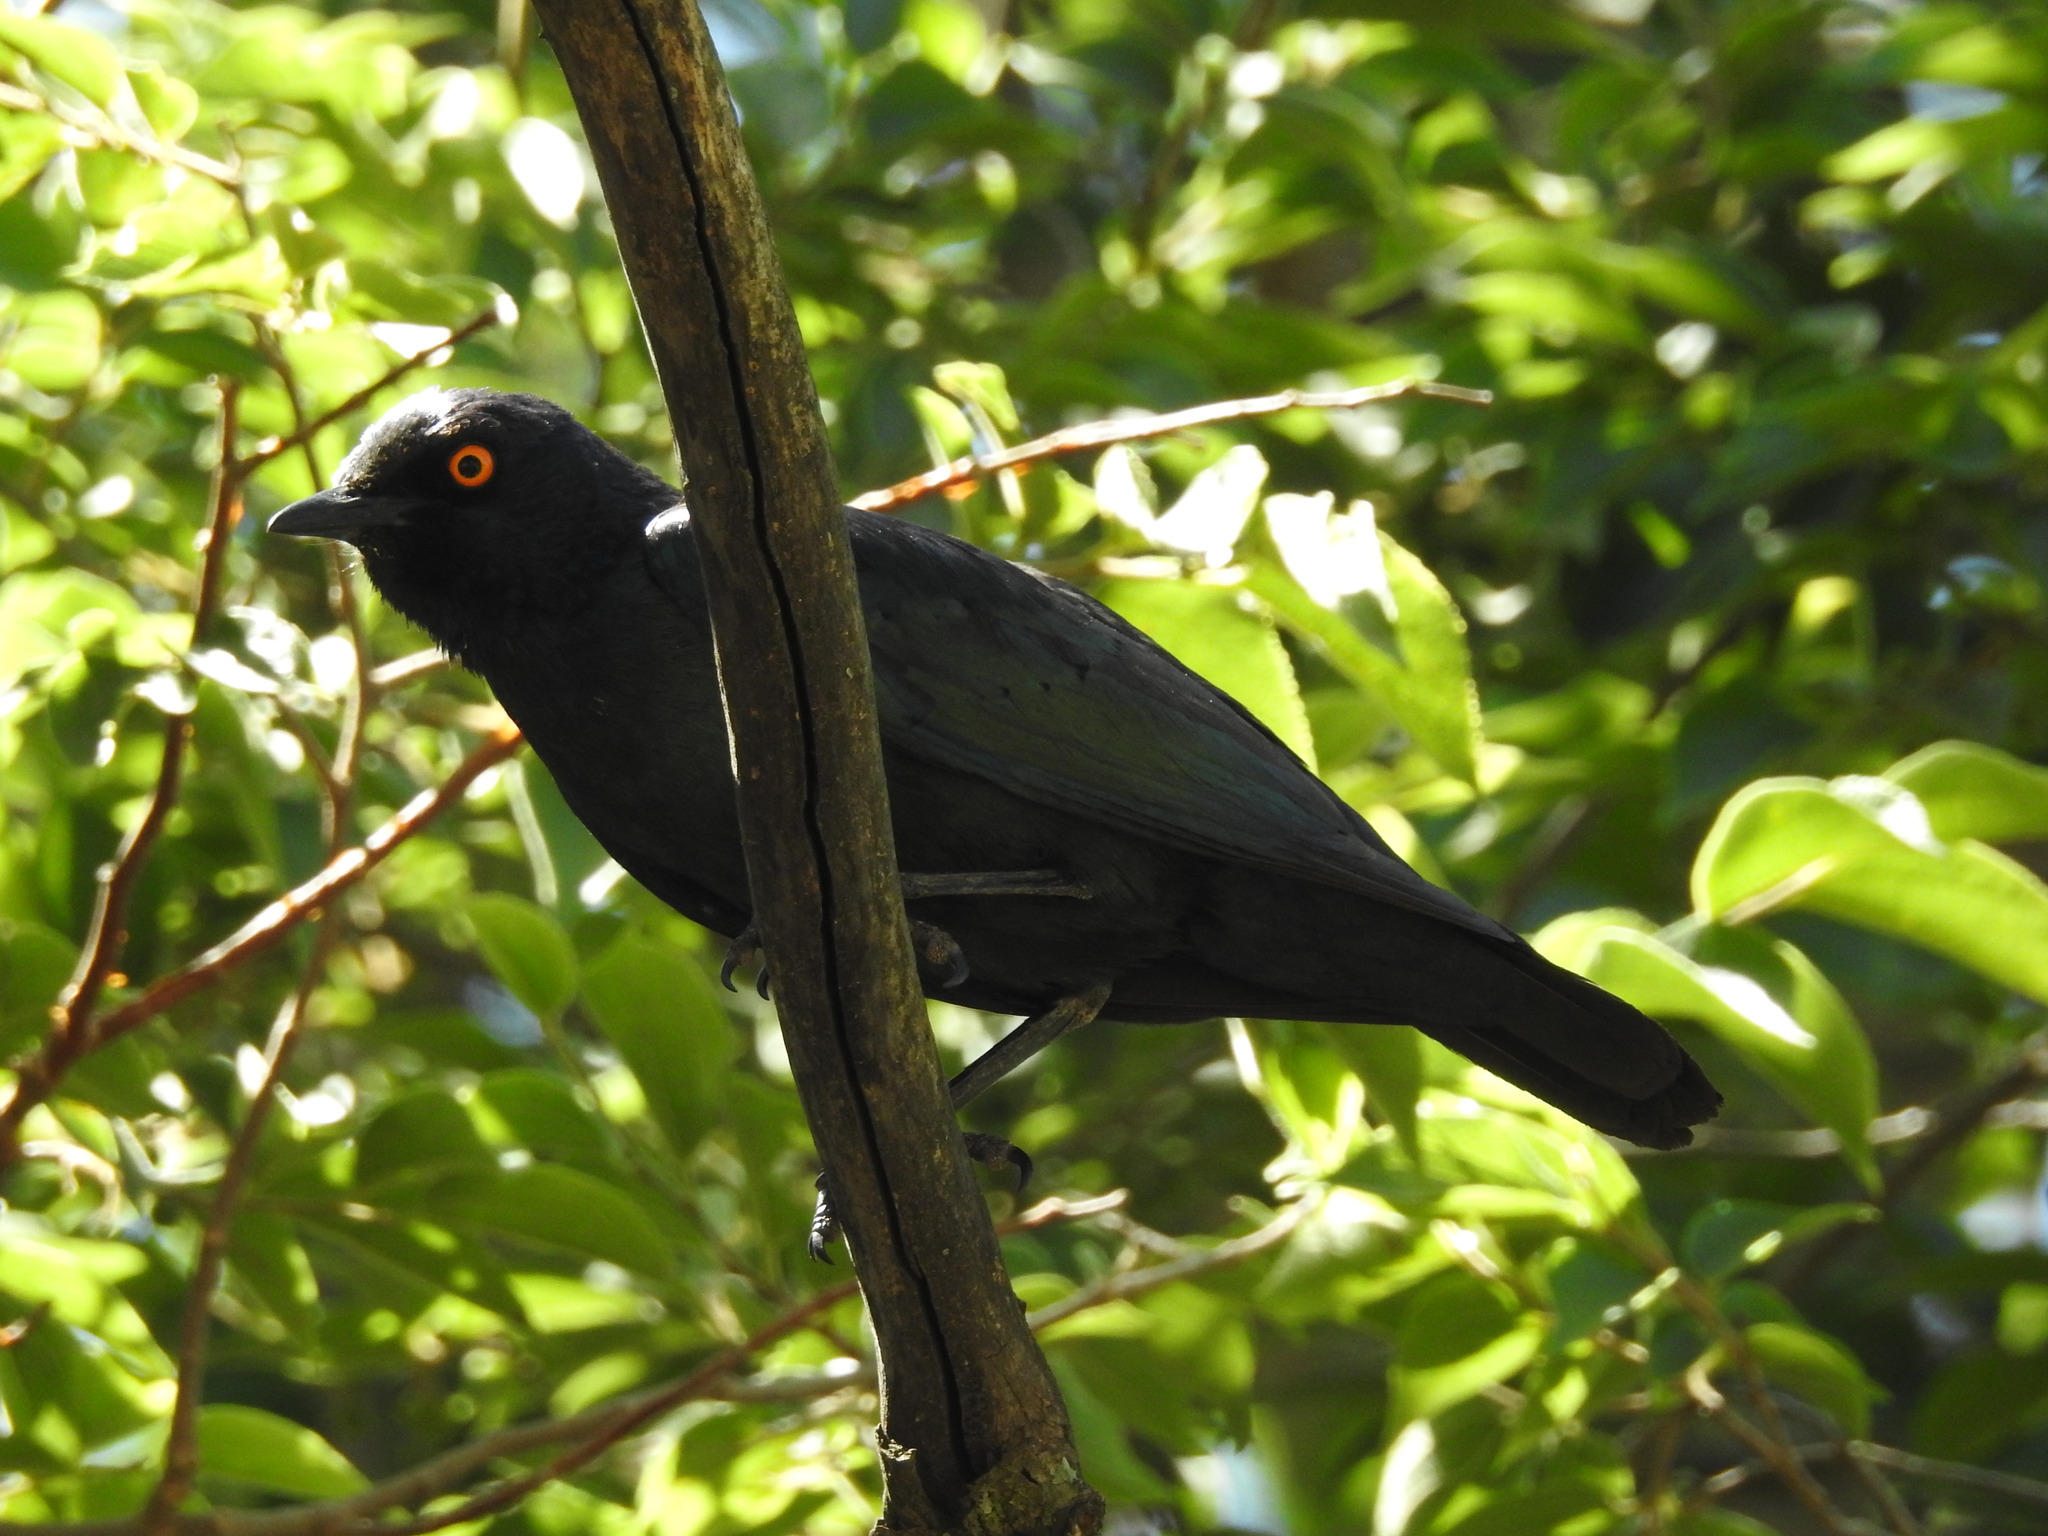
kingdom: Animalia
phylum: Chordata
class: Aves
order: Passeriformes
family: Sturnidae
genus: Lamprotornis
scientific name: Lamprotornis nitens
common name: Cape starling
